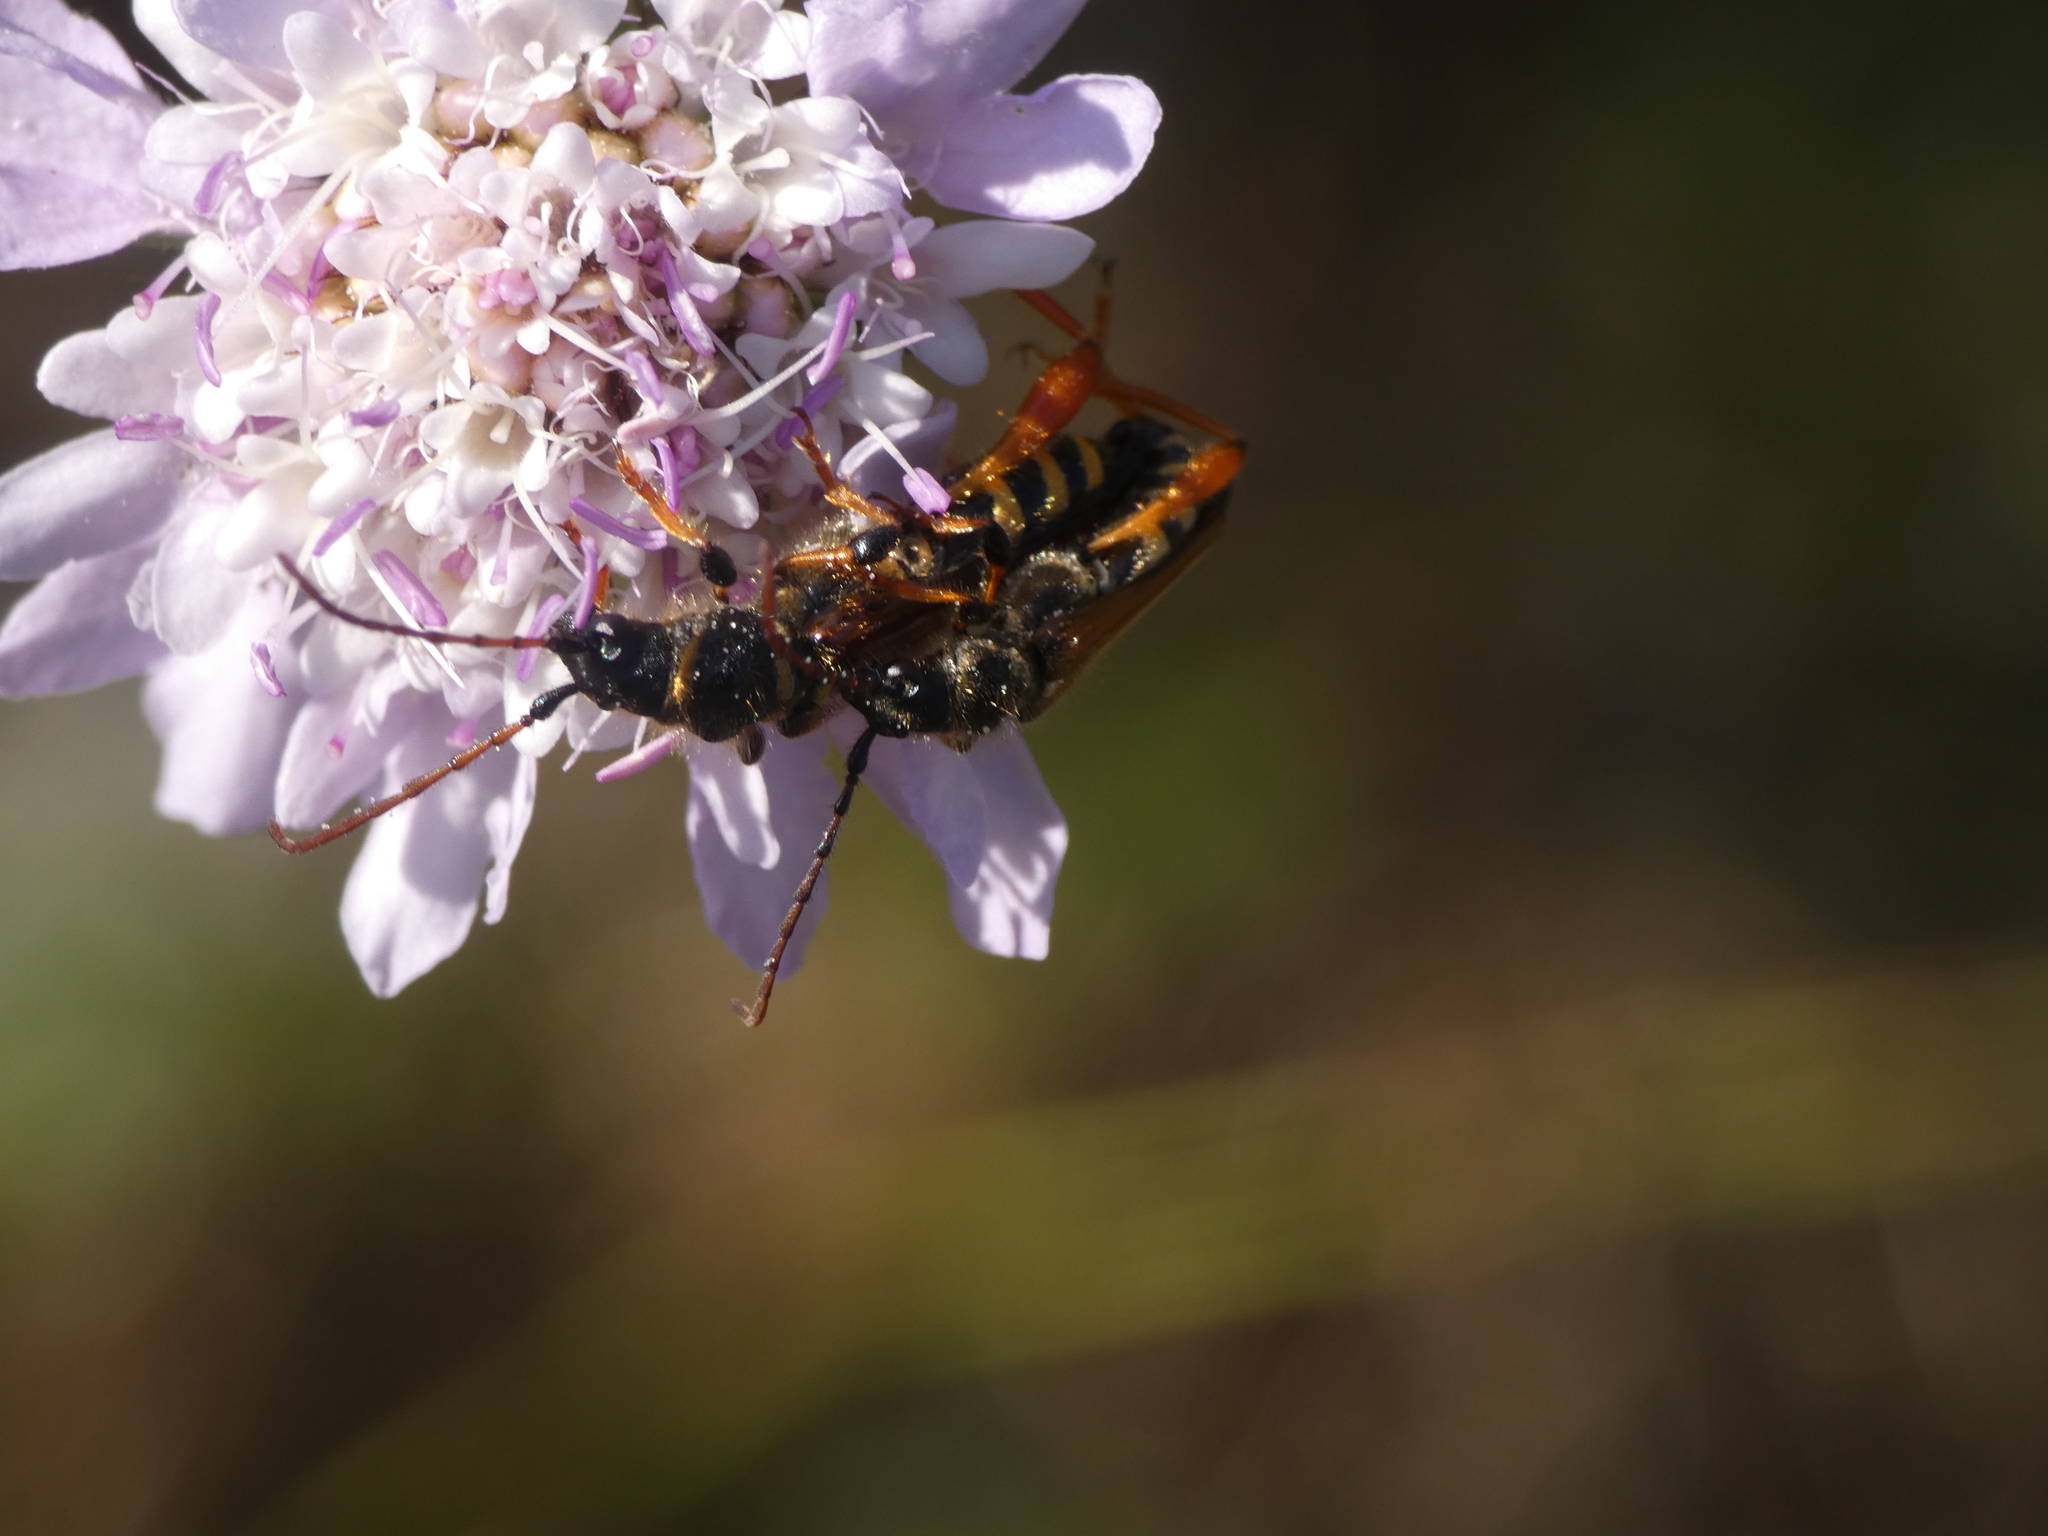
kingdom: Animalia
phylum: Arthropoda
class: Insecta
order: Coleoptera
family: Cerambycidae
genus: Stenopterus
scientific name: Stenopterus rufus
